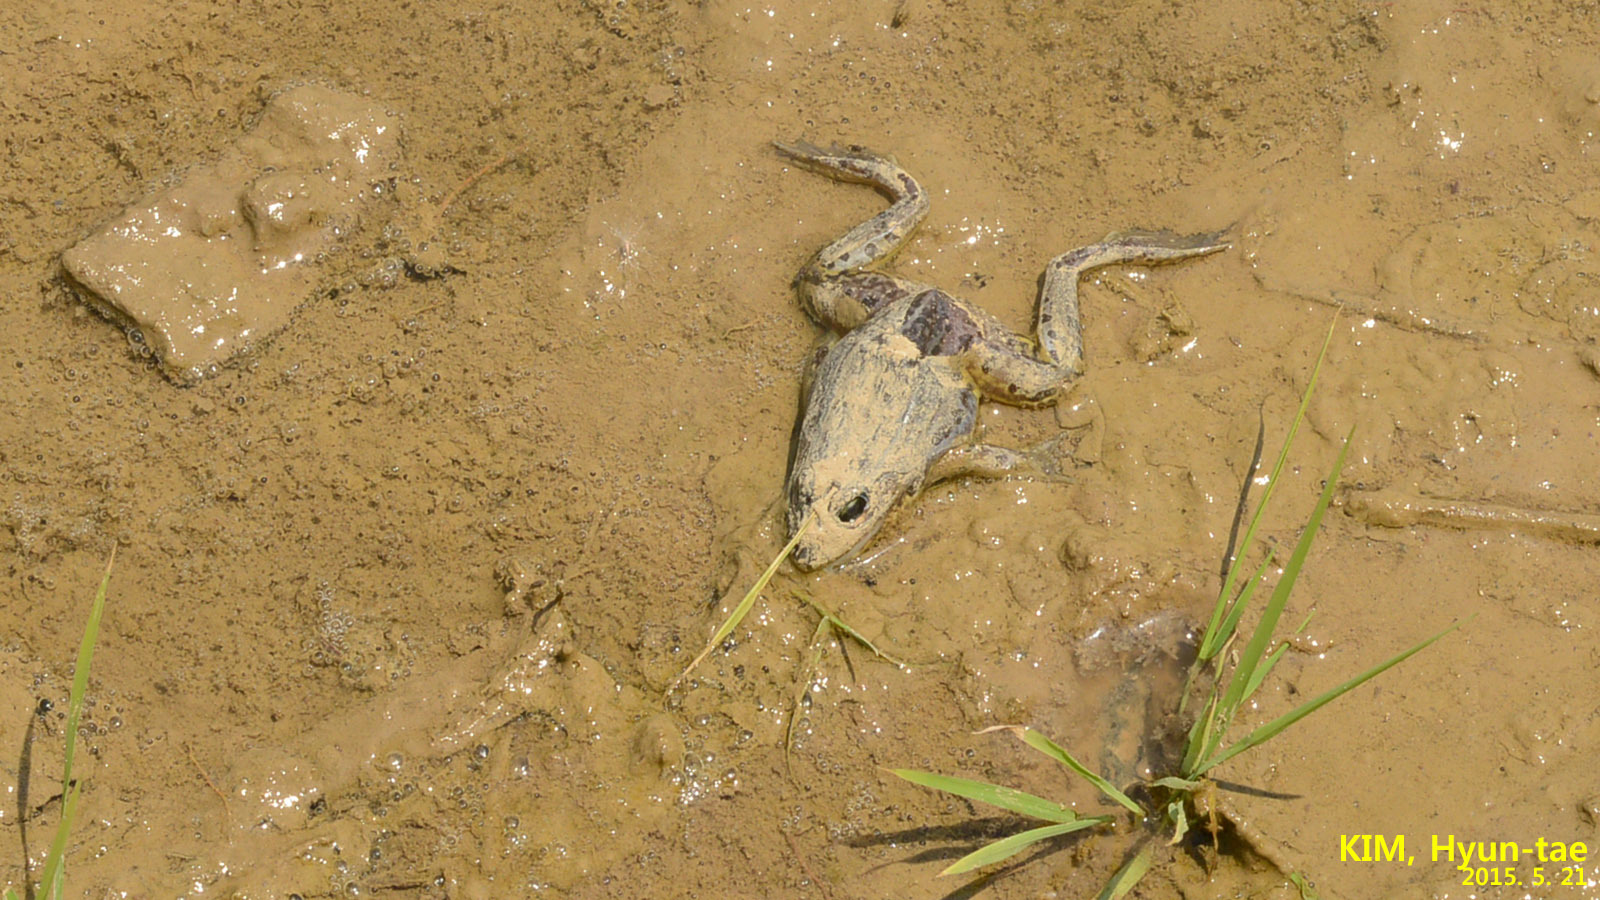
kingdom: Animalia
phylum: Chordata
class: Amphibia
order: Anura
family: Ranidae
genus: Pelophylax
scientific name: Pelophylax nigromaculatus
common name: Black-spotted pond frog
